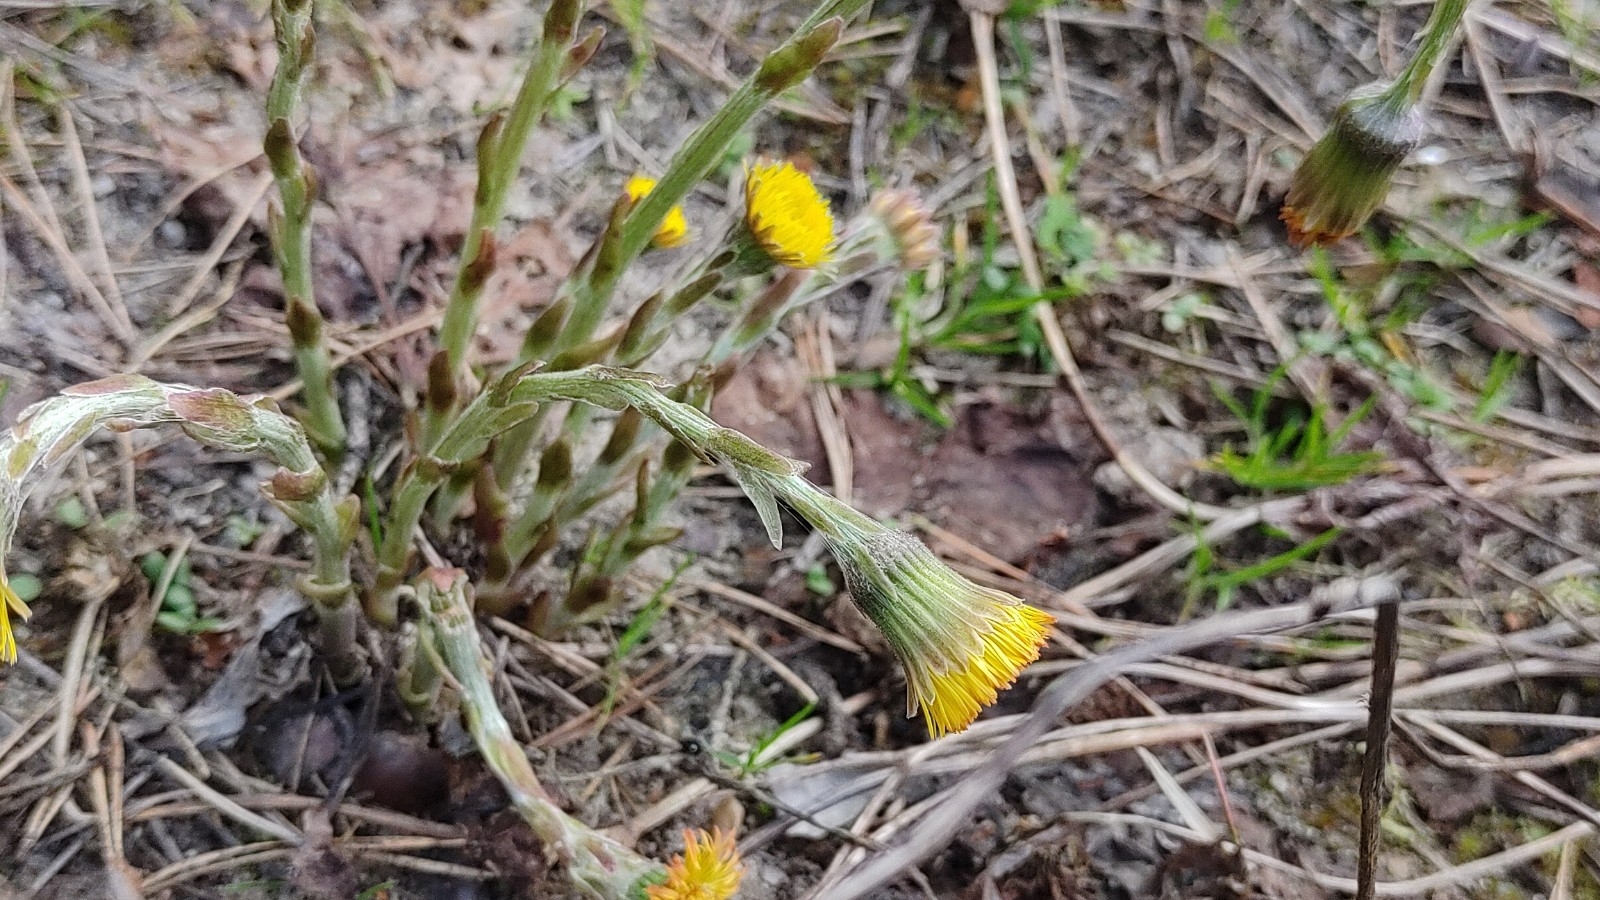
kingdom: Plantae
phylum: Tracheophyta
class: Magnoliopsida
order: Asterales
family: Asteraceae
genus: Tussilago
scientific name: Tussilago farfara
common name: Coltsfoot
